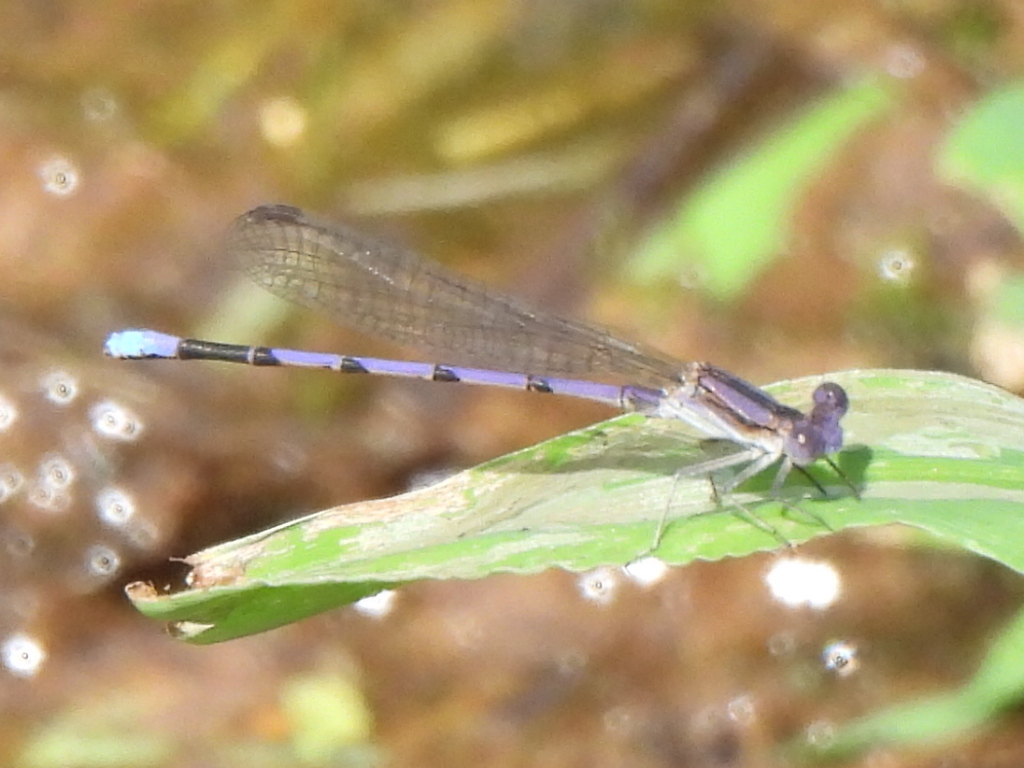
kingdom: Animalia
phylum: Arthropoda
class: Insecta
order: Odonata
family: Coenagrionidae
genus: Argia
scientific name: Argia fumipennis
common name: Variable dancer
